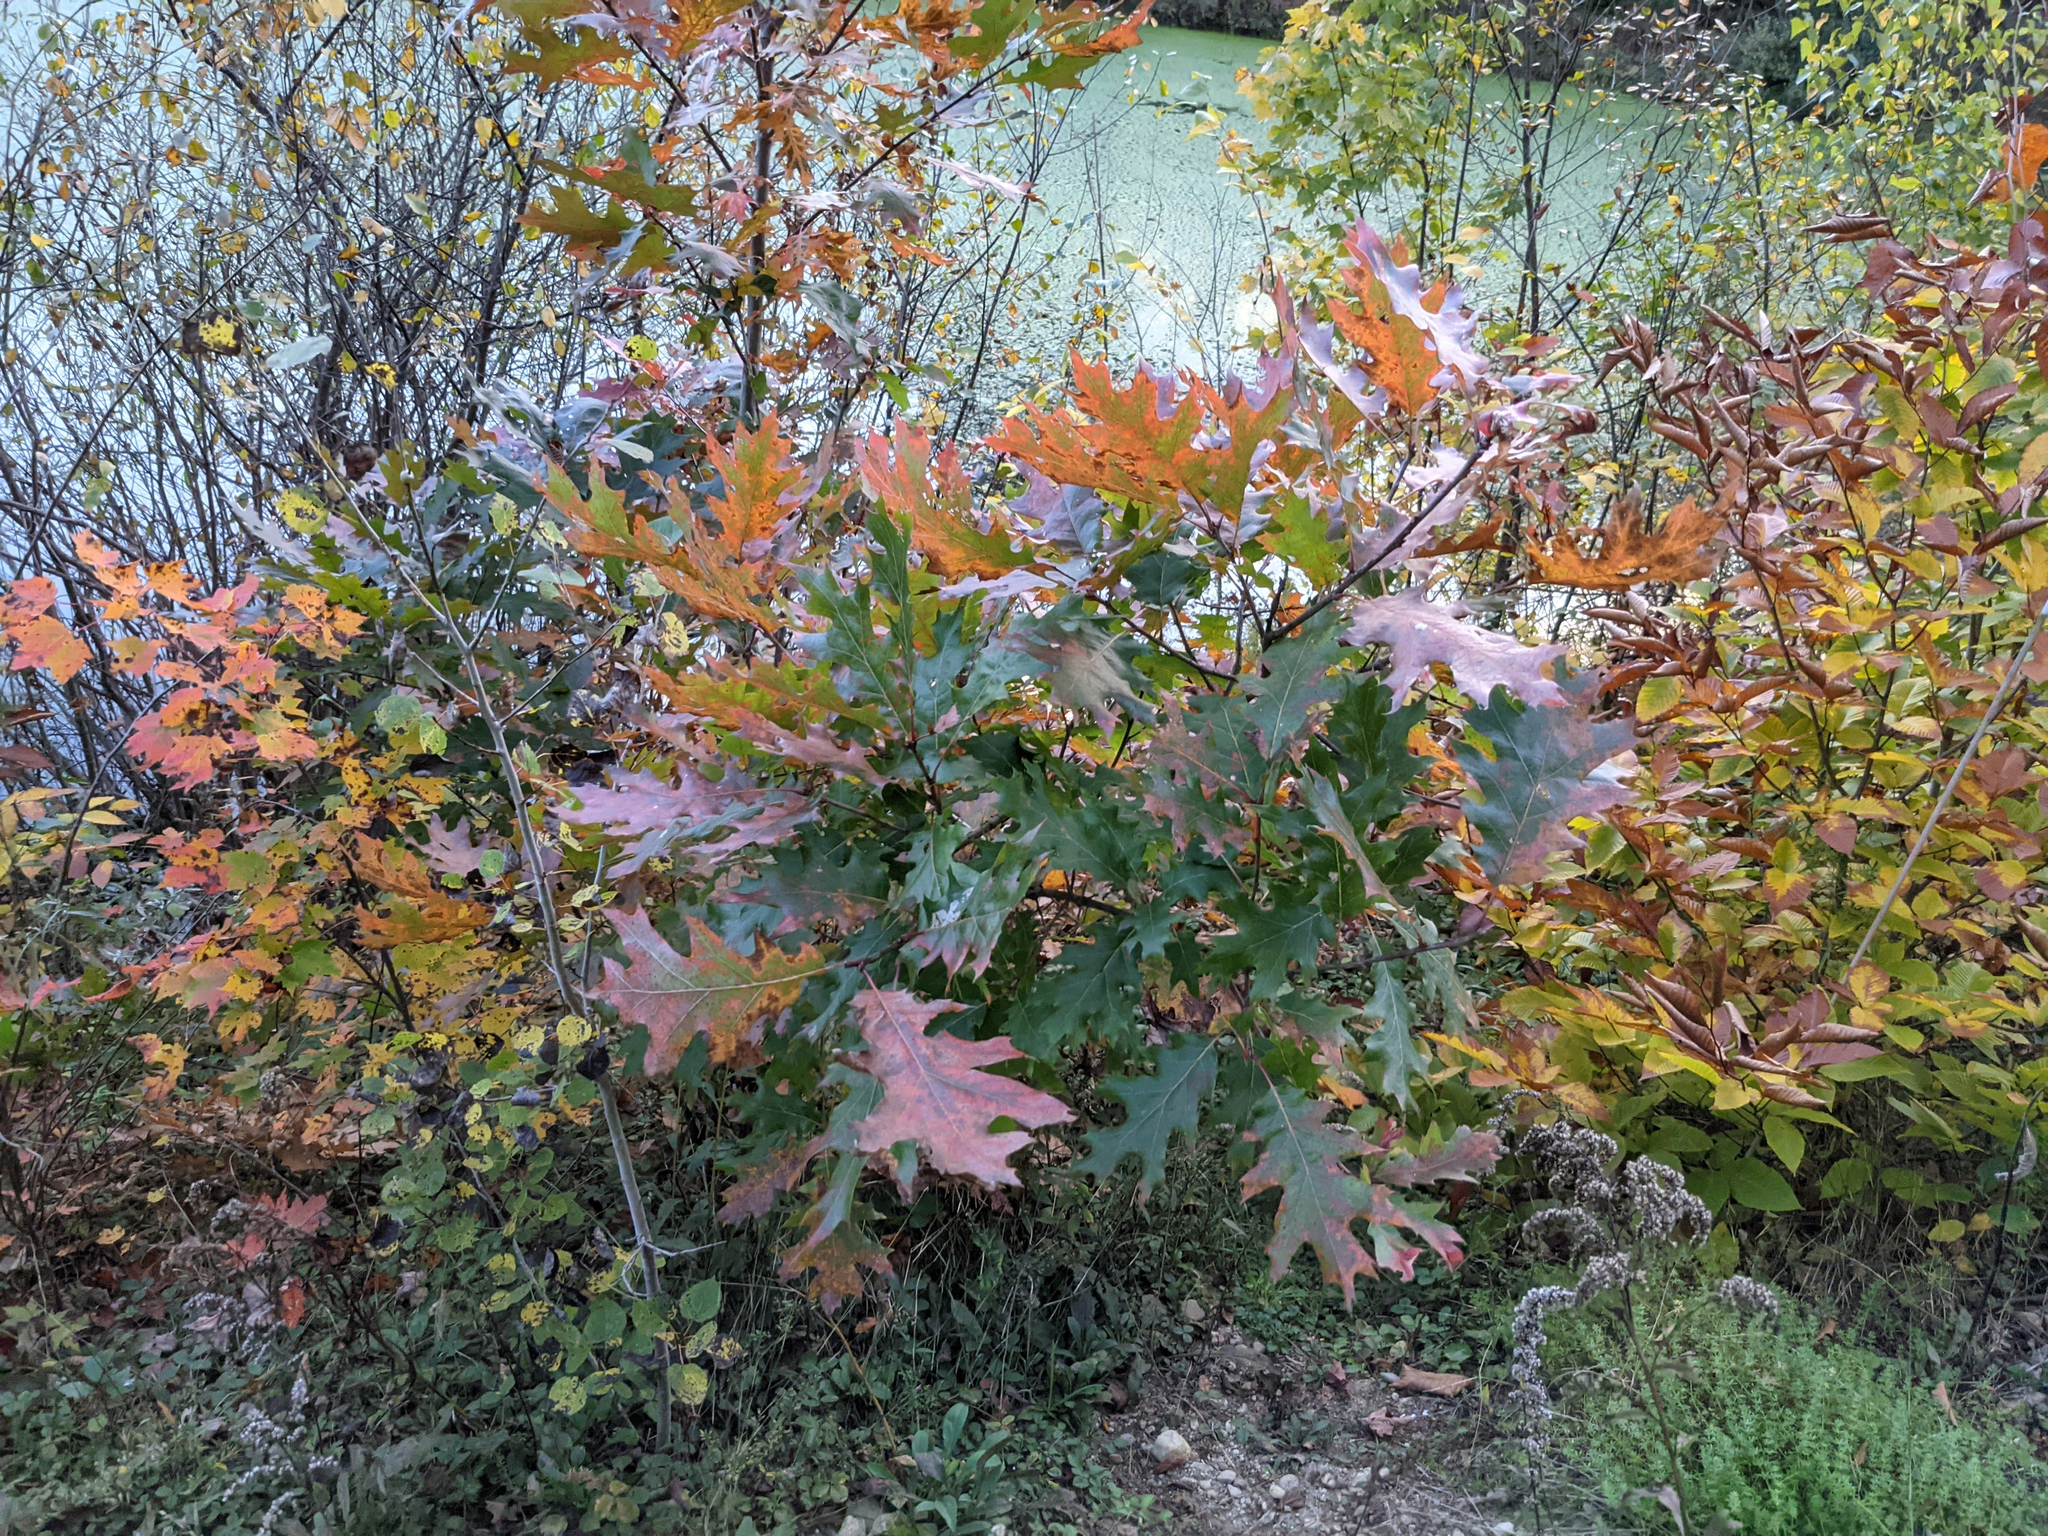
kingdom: Plantae
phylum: Tracheophyta
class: Magnoliopsida
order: Fagales
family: Fagaceae
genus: Quercus
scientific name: Quercus rubra
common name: Red oak
